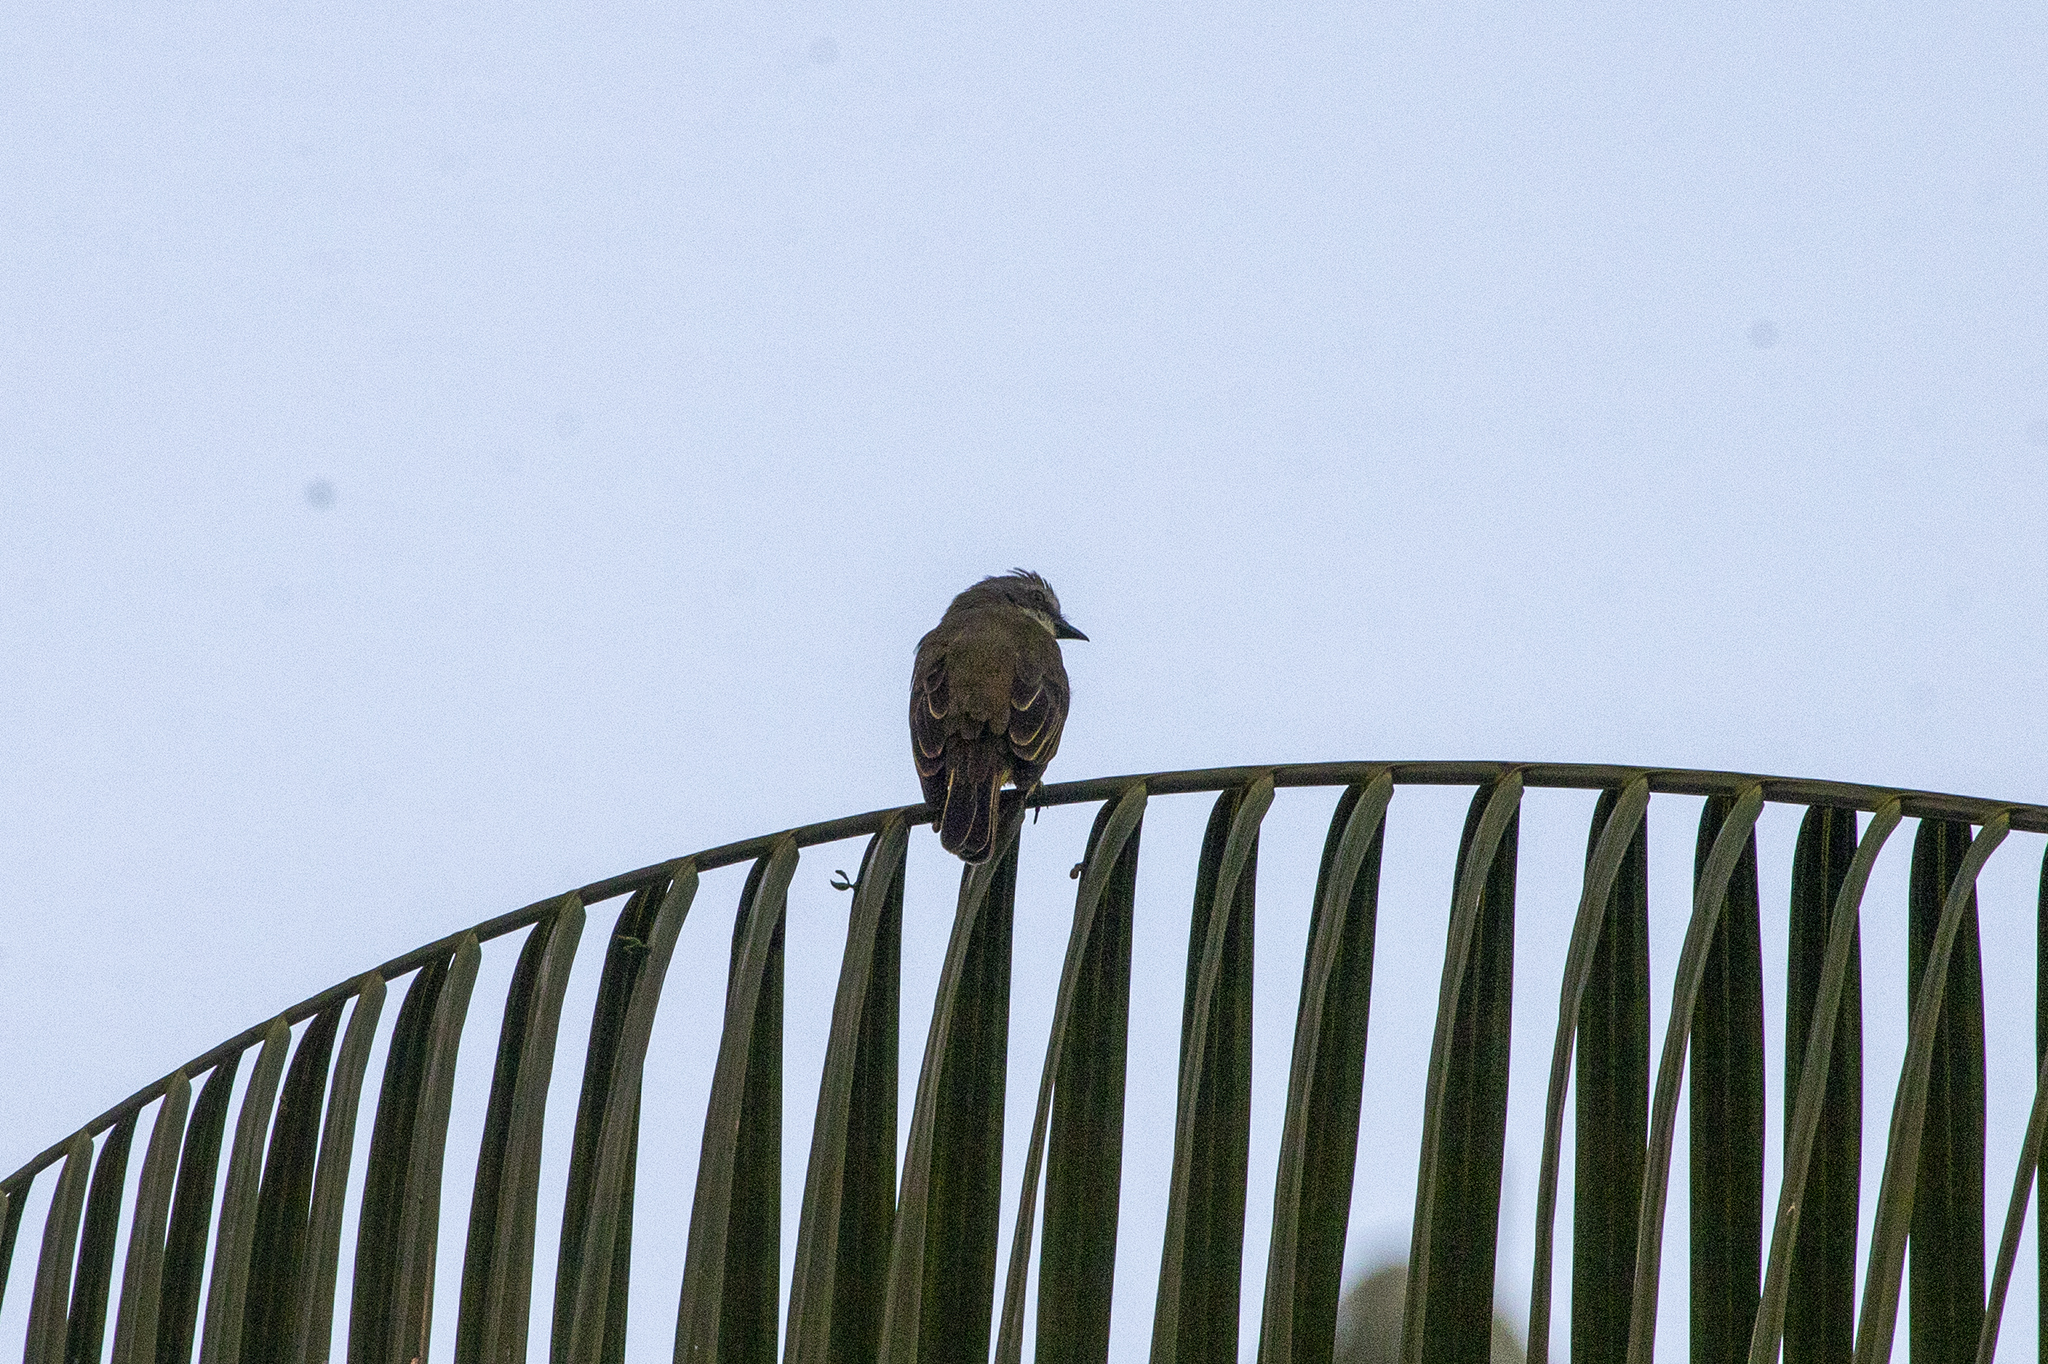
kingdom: Animalia
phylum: Chordata
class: Aves
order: Passeriformes
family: Tyrannidae
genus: Myiozetetes
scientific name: Myiozetetes granadensis
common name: Gray-capped flycatcher
